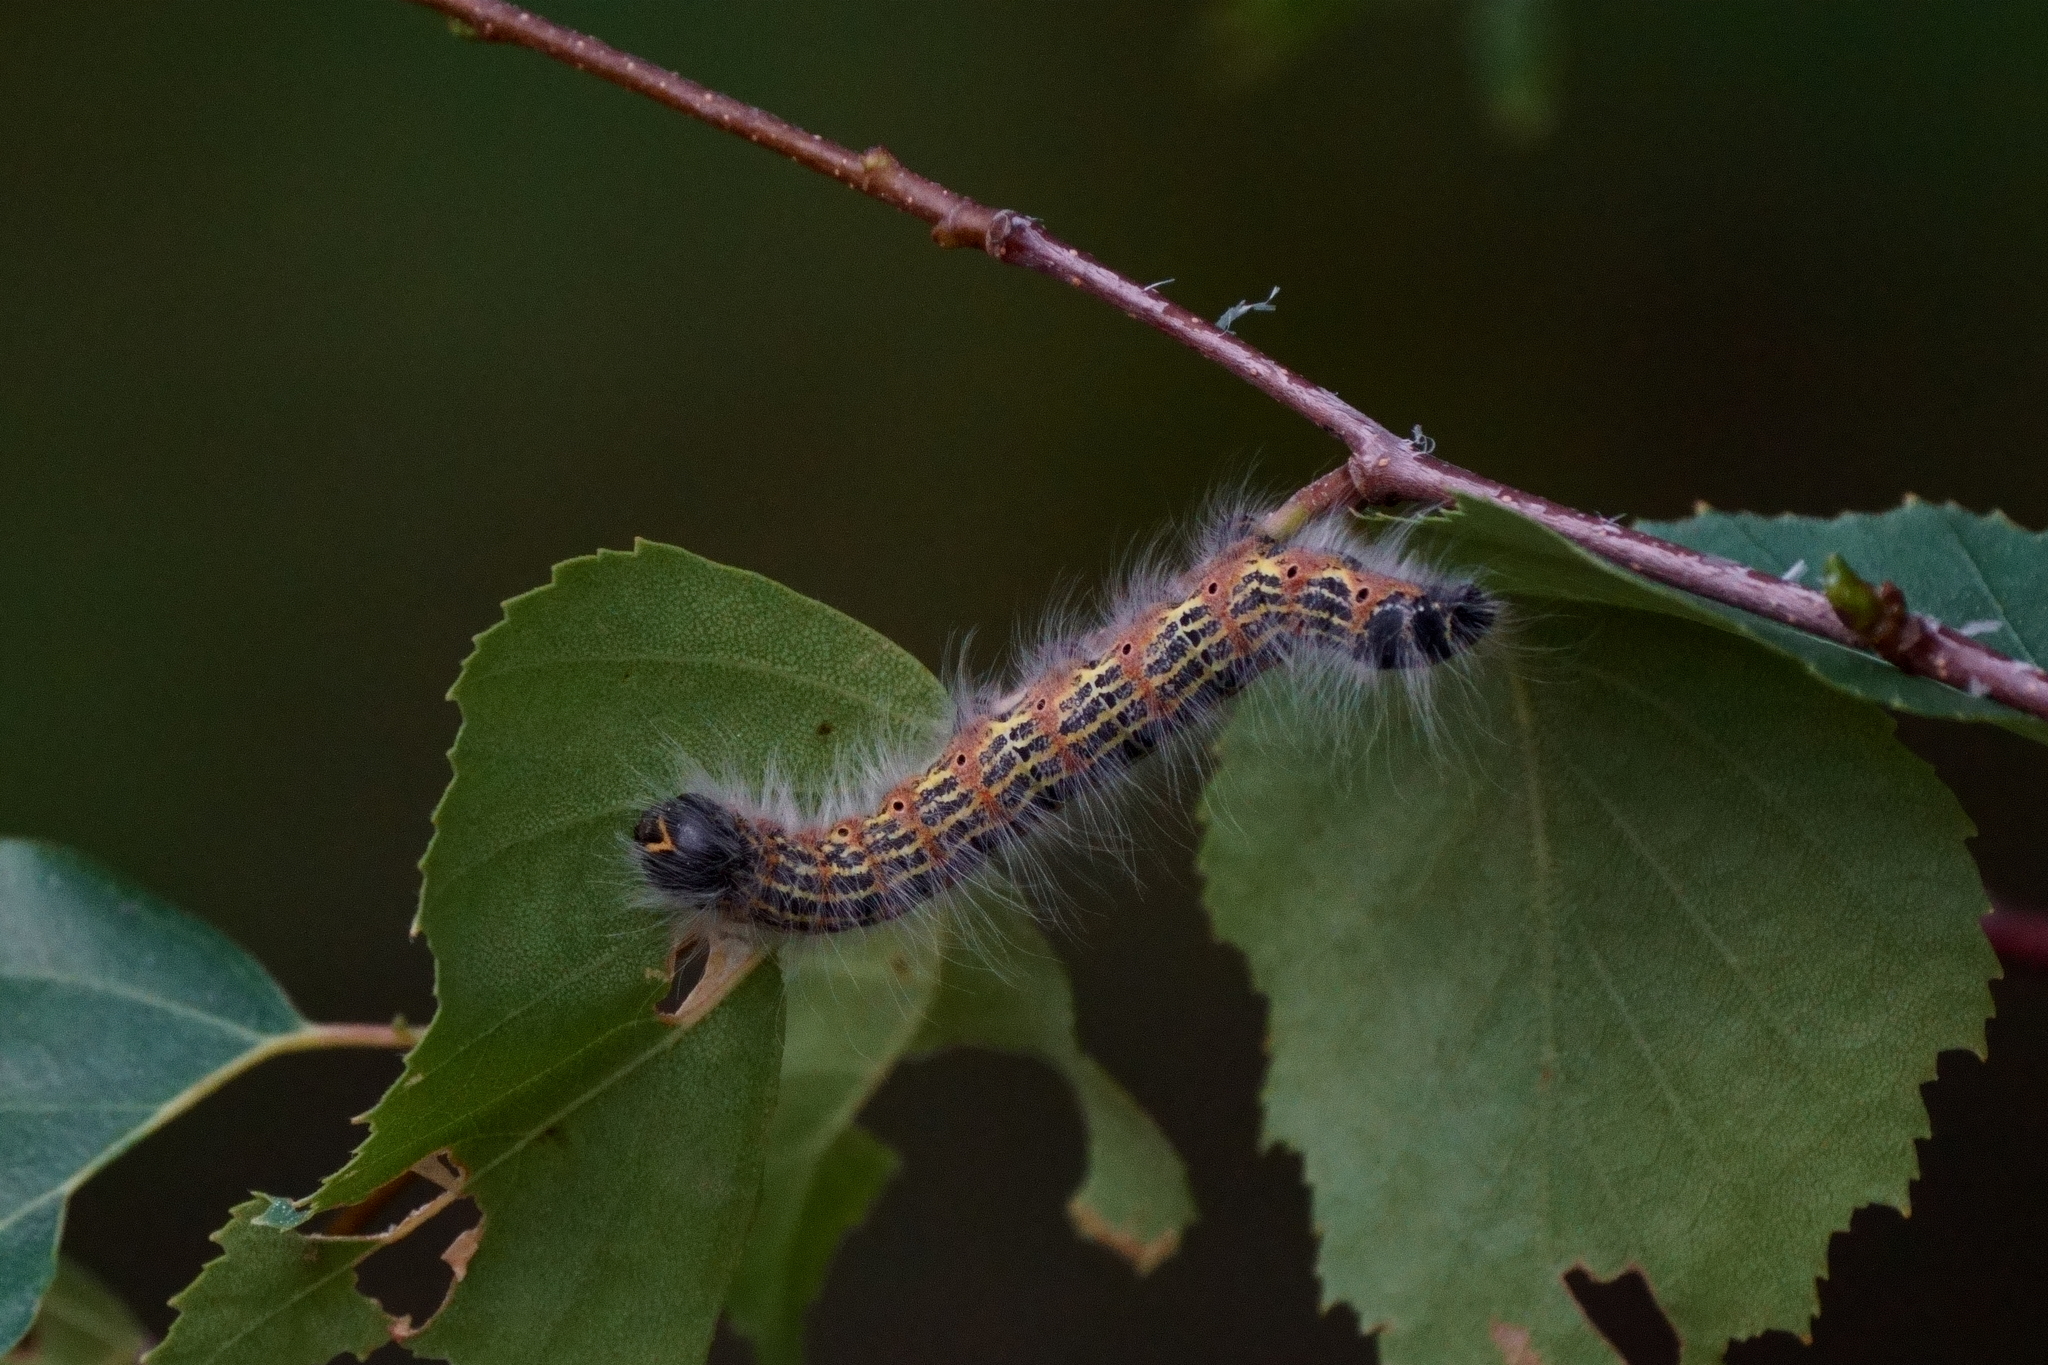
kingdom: Animalia
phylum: Arthropoda
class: Insecta
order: Lepidoptera
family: Notodontidae
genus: Phalera
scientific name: Phalera bucephala
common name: Buff-tip
